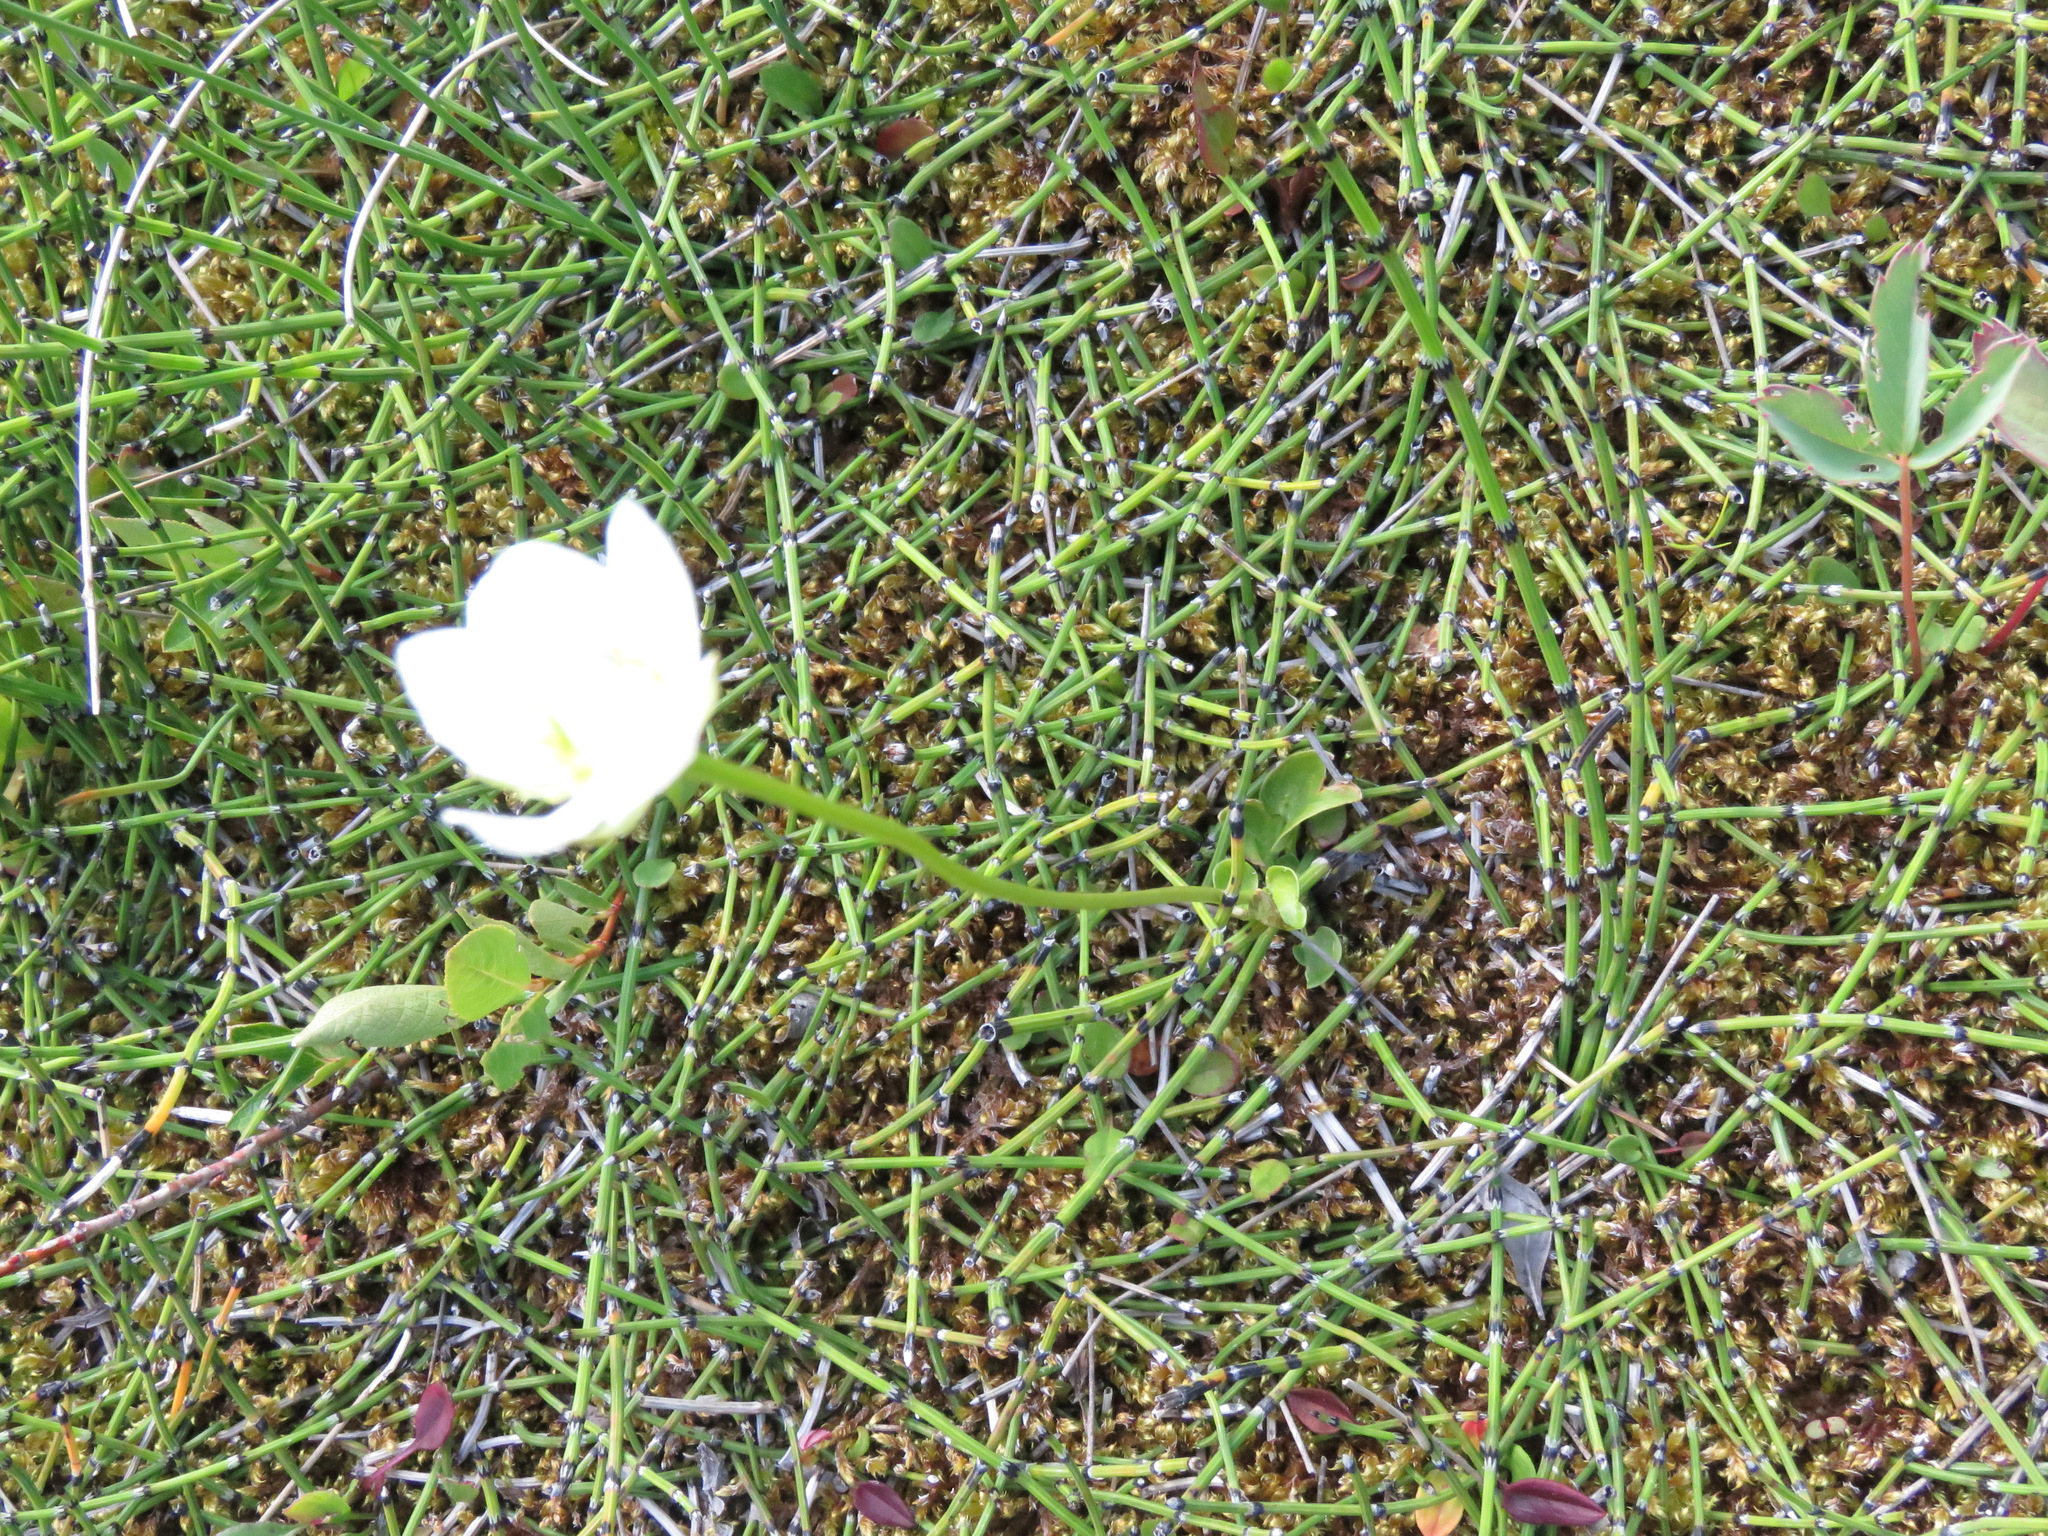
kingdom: Plantae
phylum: Tracheophyta
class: Magnoliopsida
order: Celastrales
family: Parnassiaceae
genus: Parnassia
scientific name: Parnassia palustris
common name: Grass-of-parnassus
